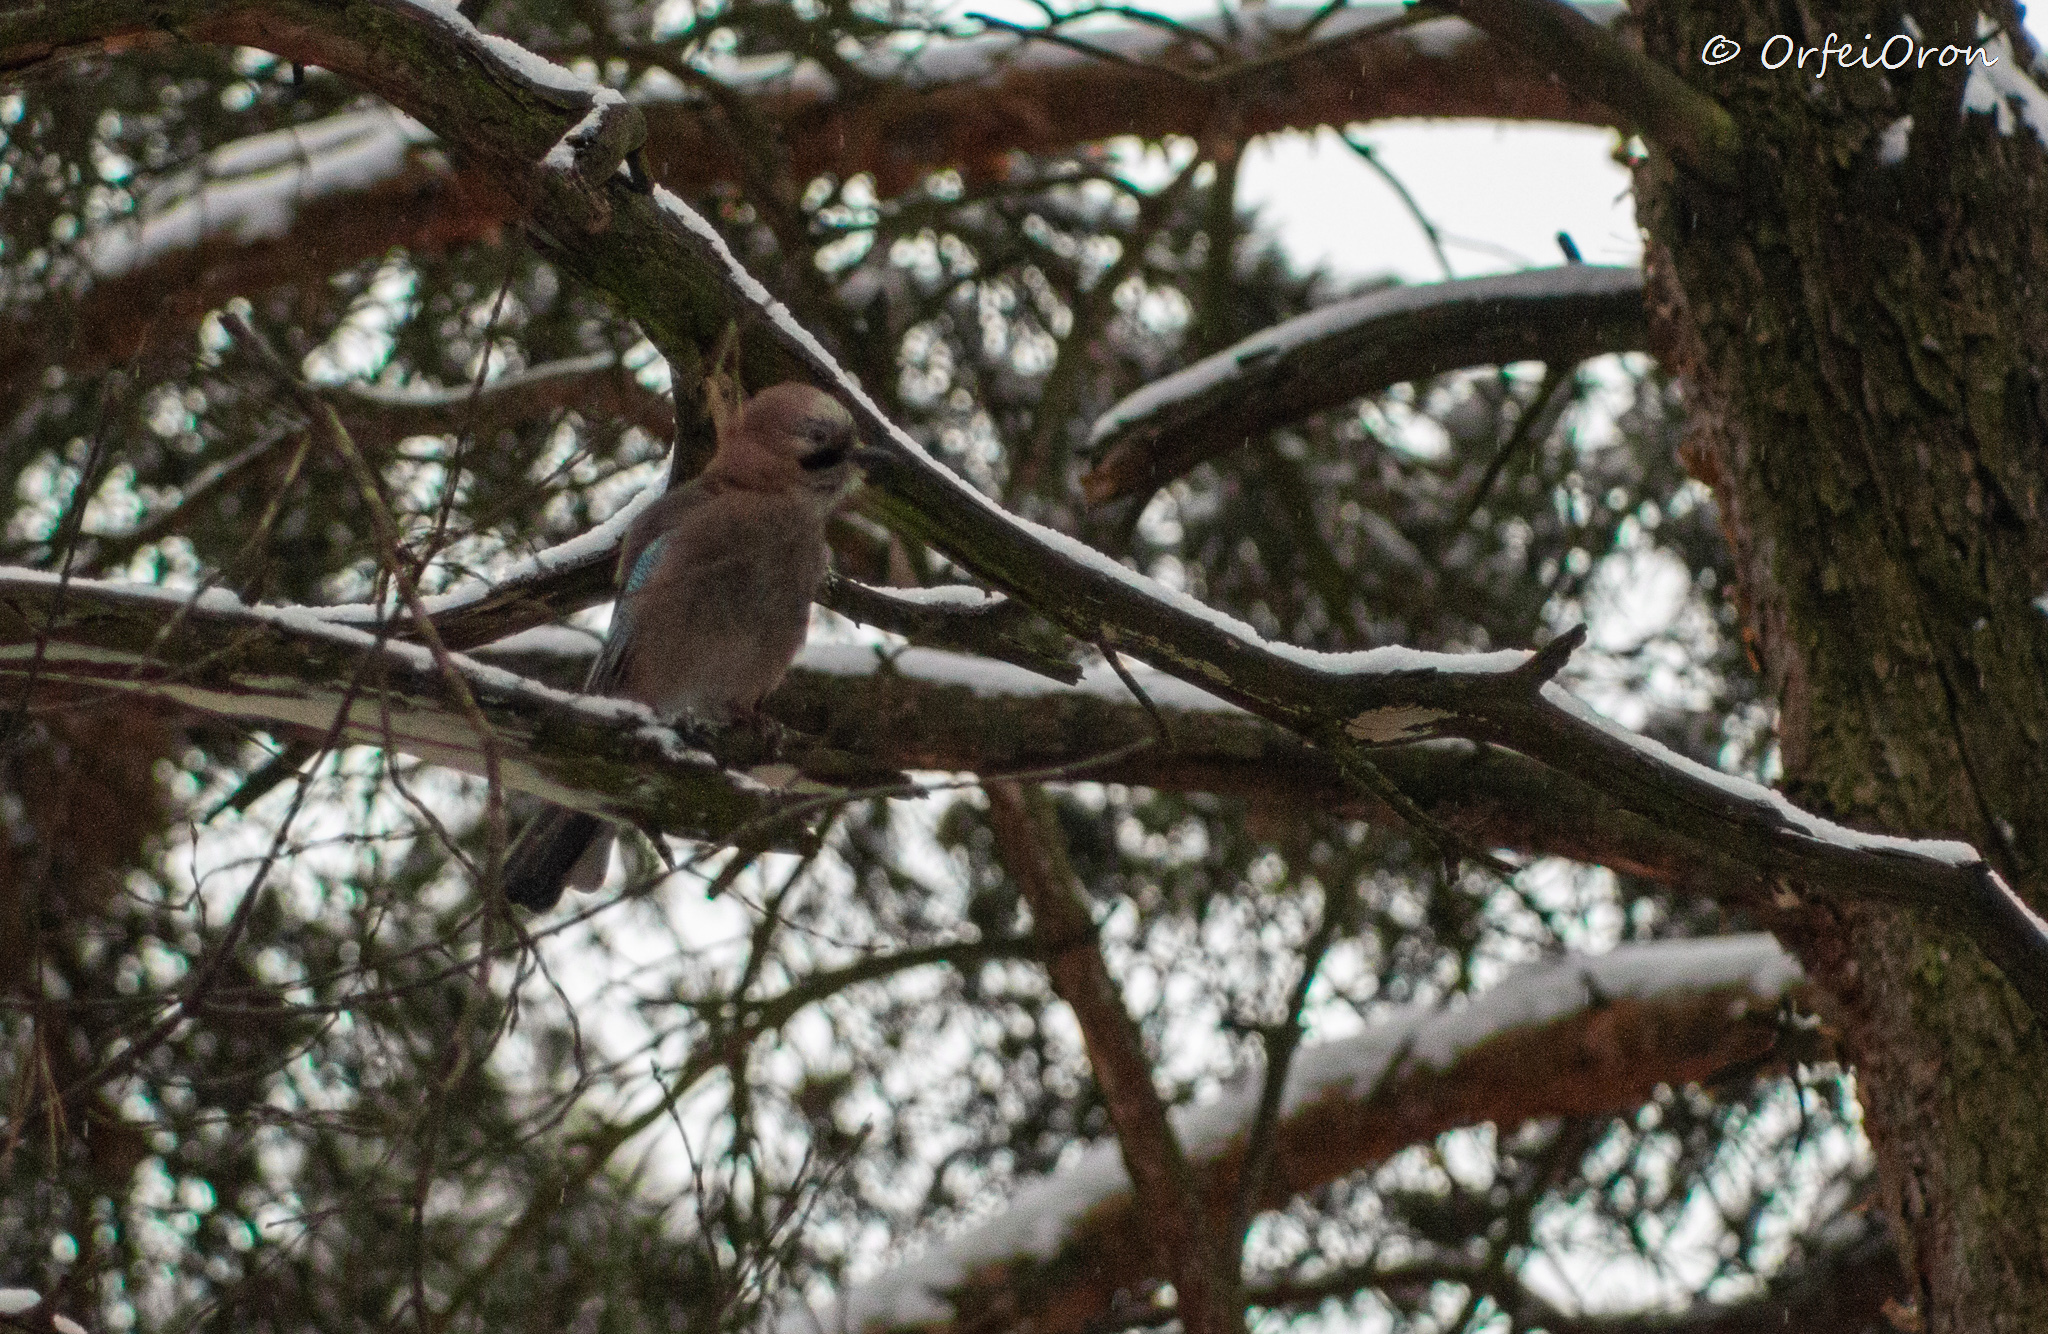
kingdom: Animalia
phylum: Chordata
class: Aves
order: Passeriformes
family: Corvidae
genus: Garrulus
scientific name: Garrulus glandarius
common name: Eurasian jay
